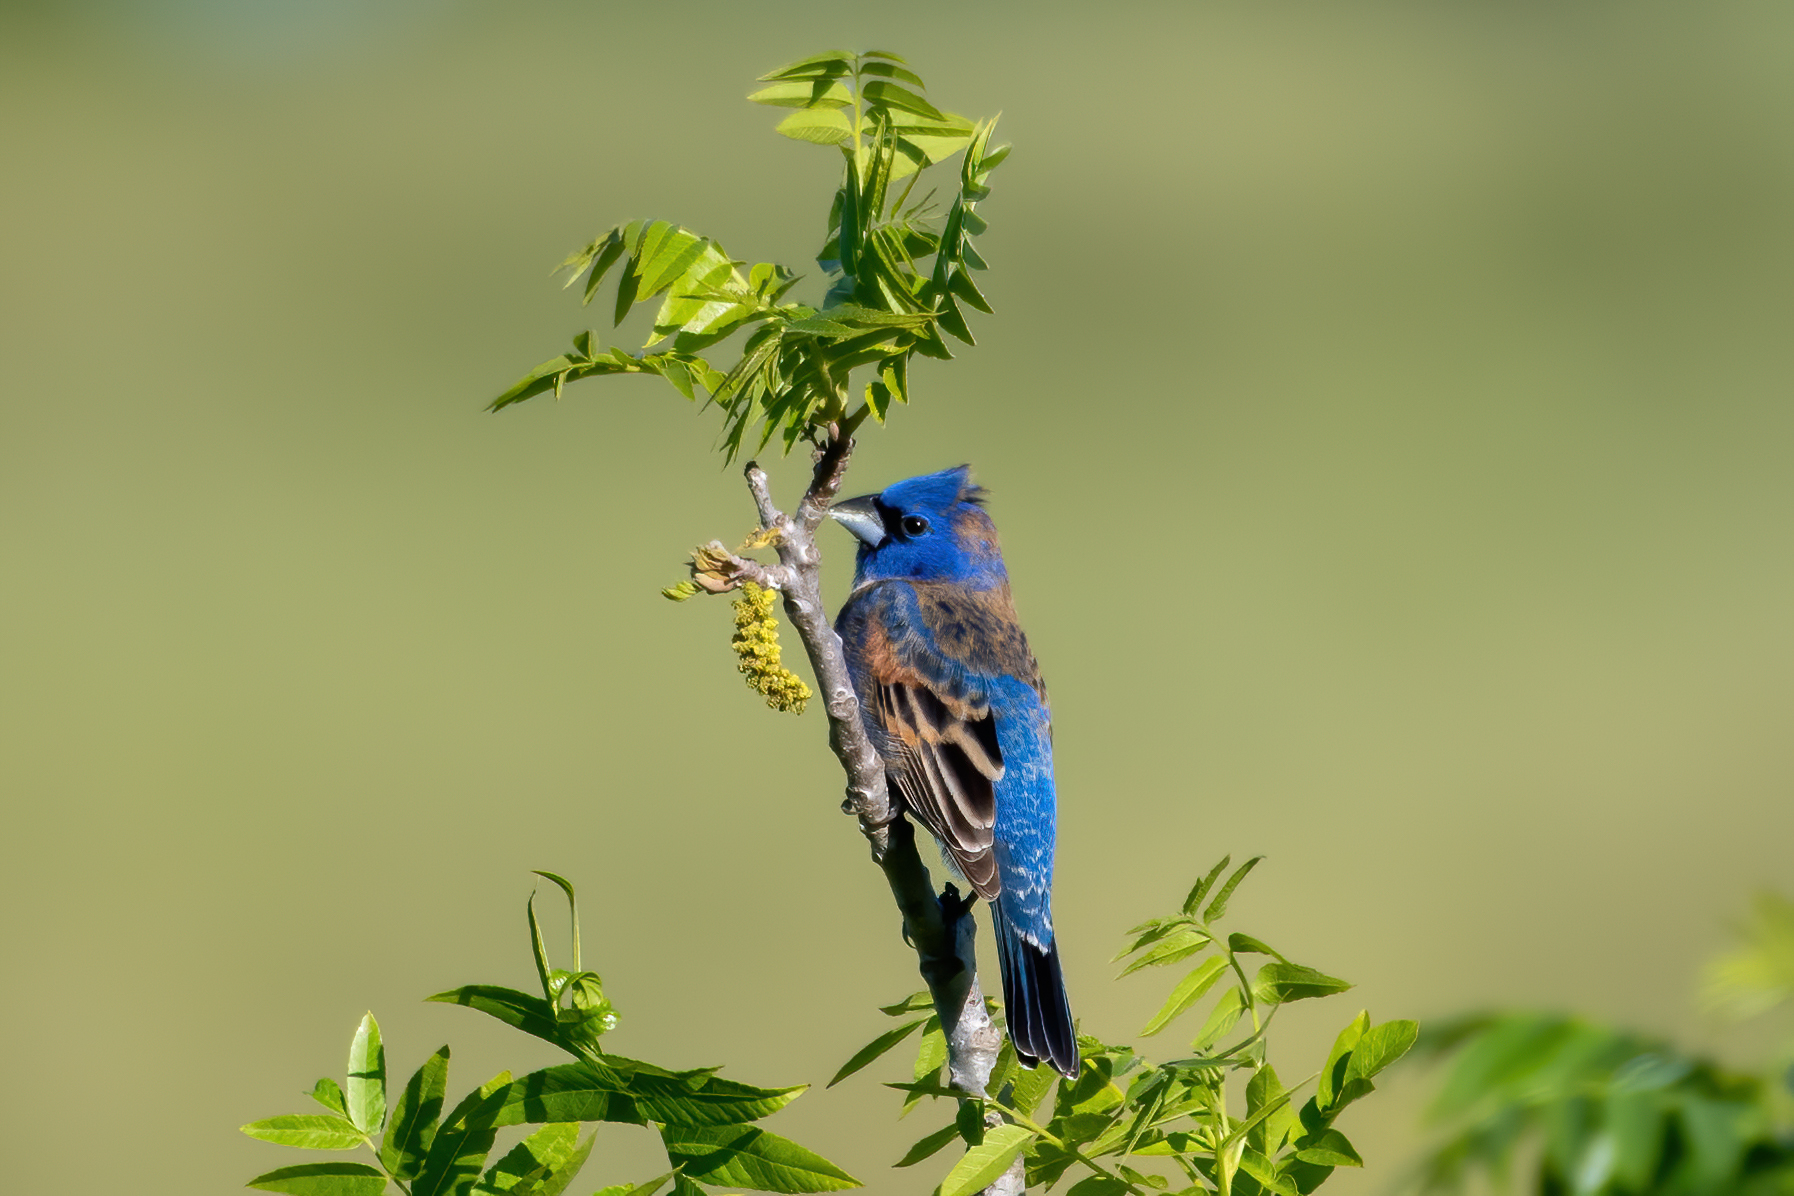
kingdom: Animalia
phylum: Chordata
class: Aves
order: Passeriformes
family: Cardinalidae
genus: Passerina
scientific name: Passerina caerulea
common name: Blue grosbeak
